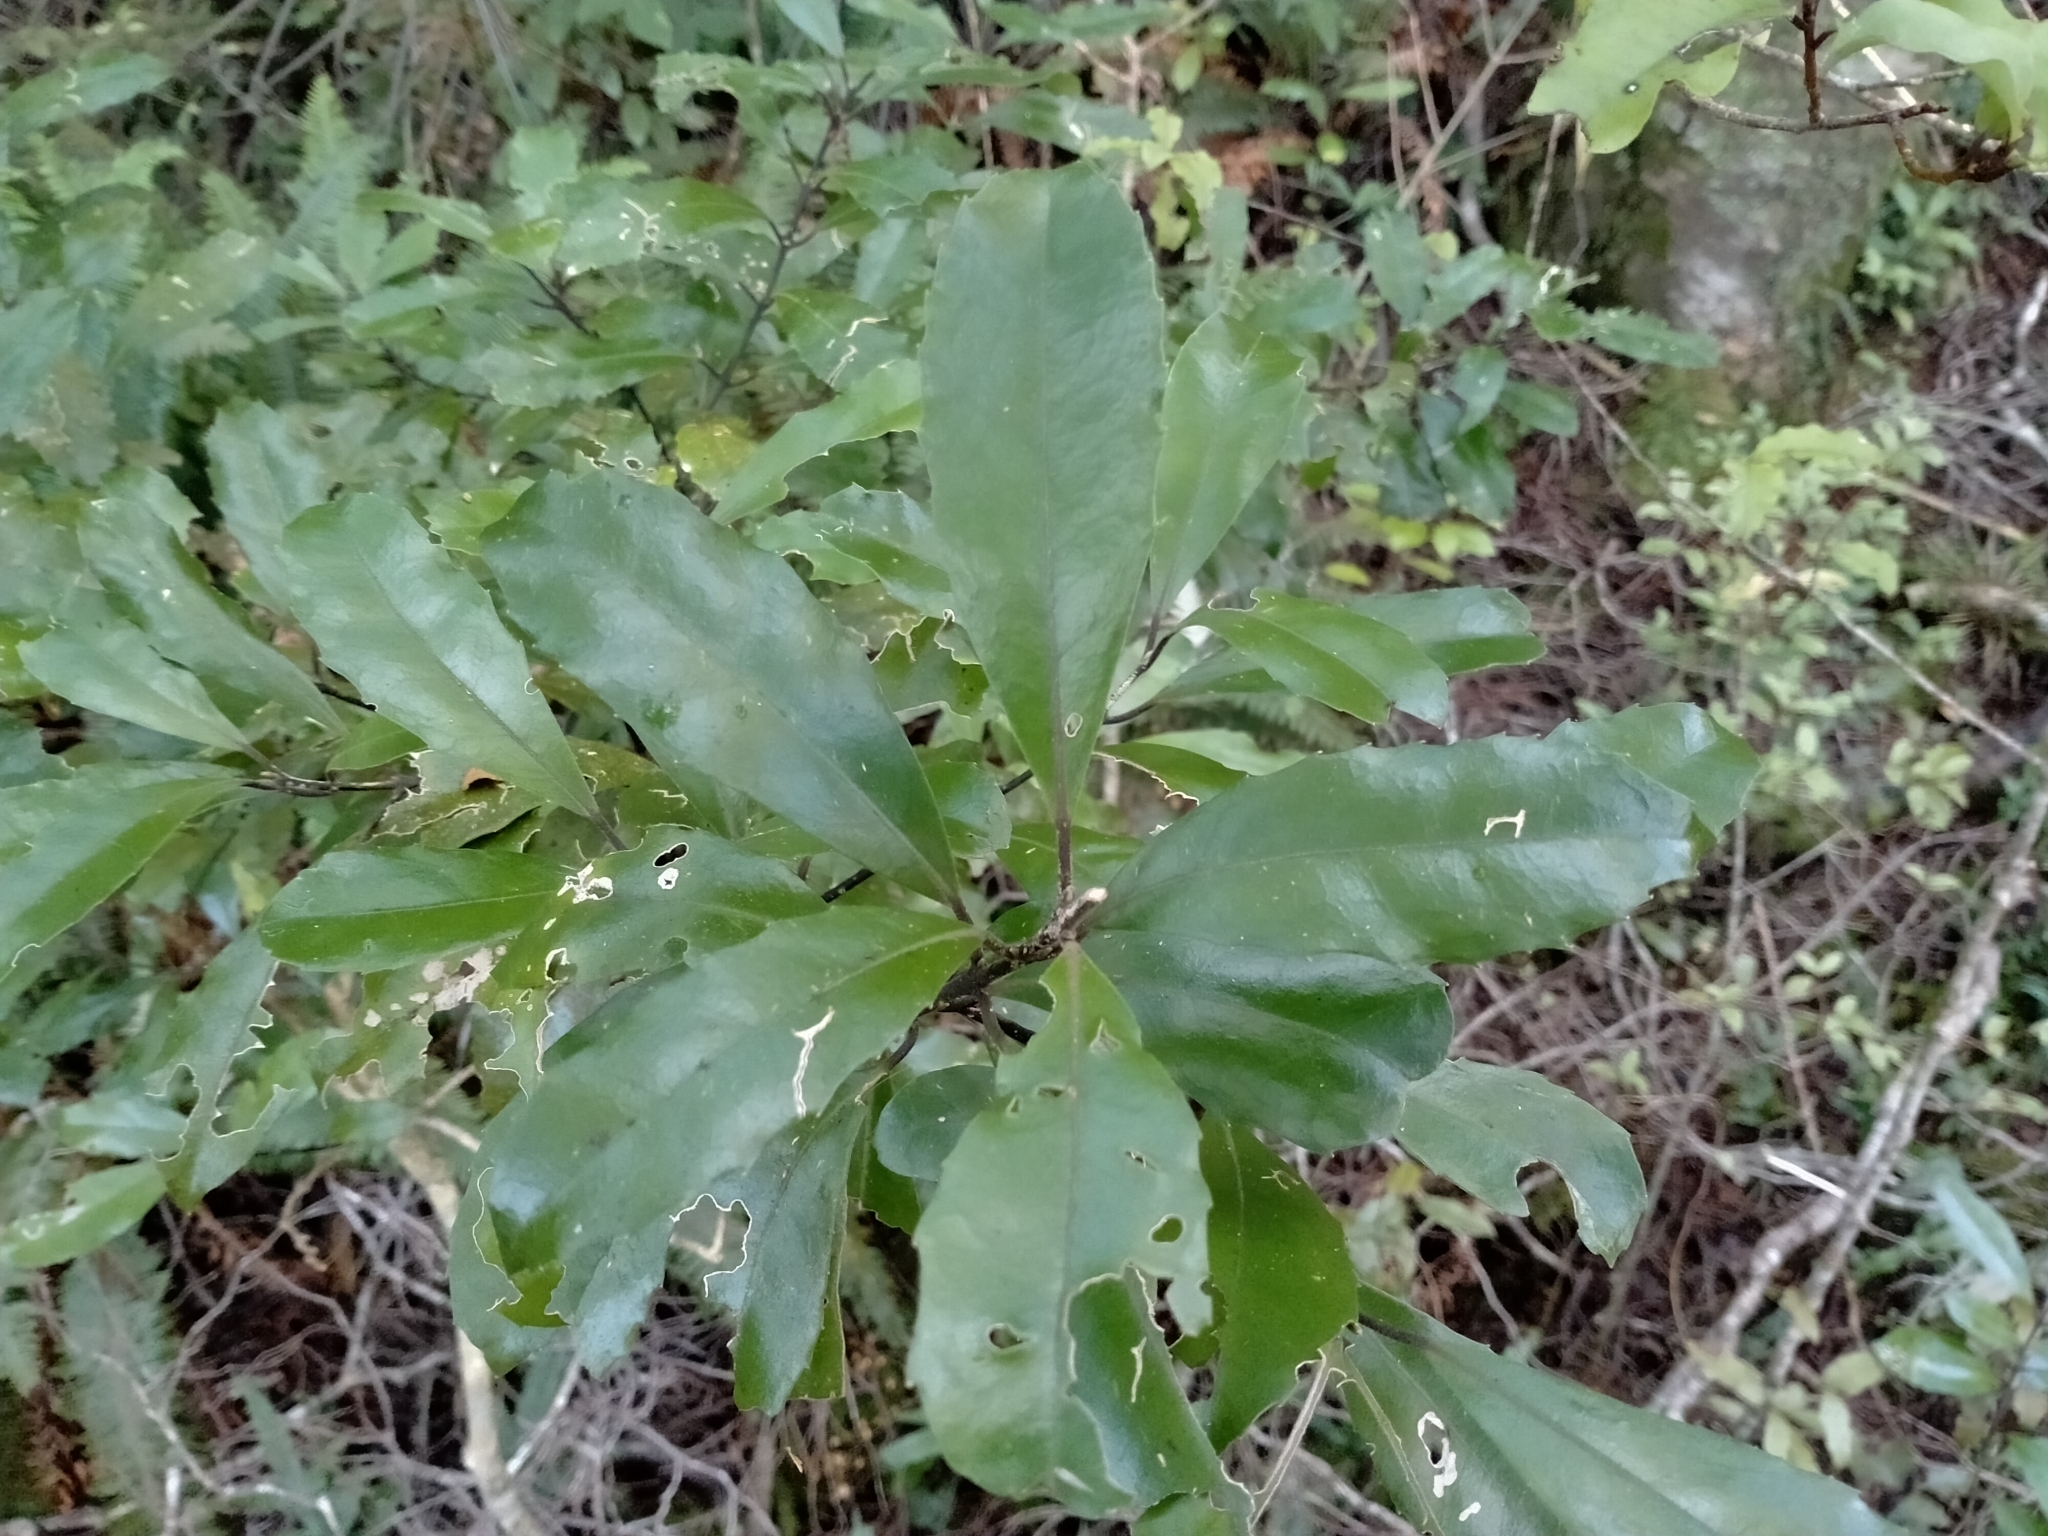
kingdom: Plantae
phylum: Tracheophyta
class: Magnoliopsida
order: Laurales
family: Monimiaceae
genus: Hedycarya
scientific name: Hedycarya arborea
